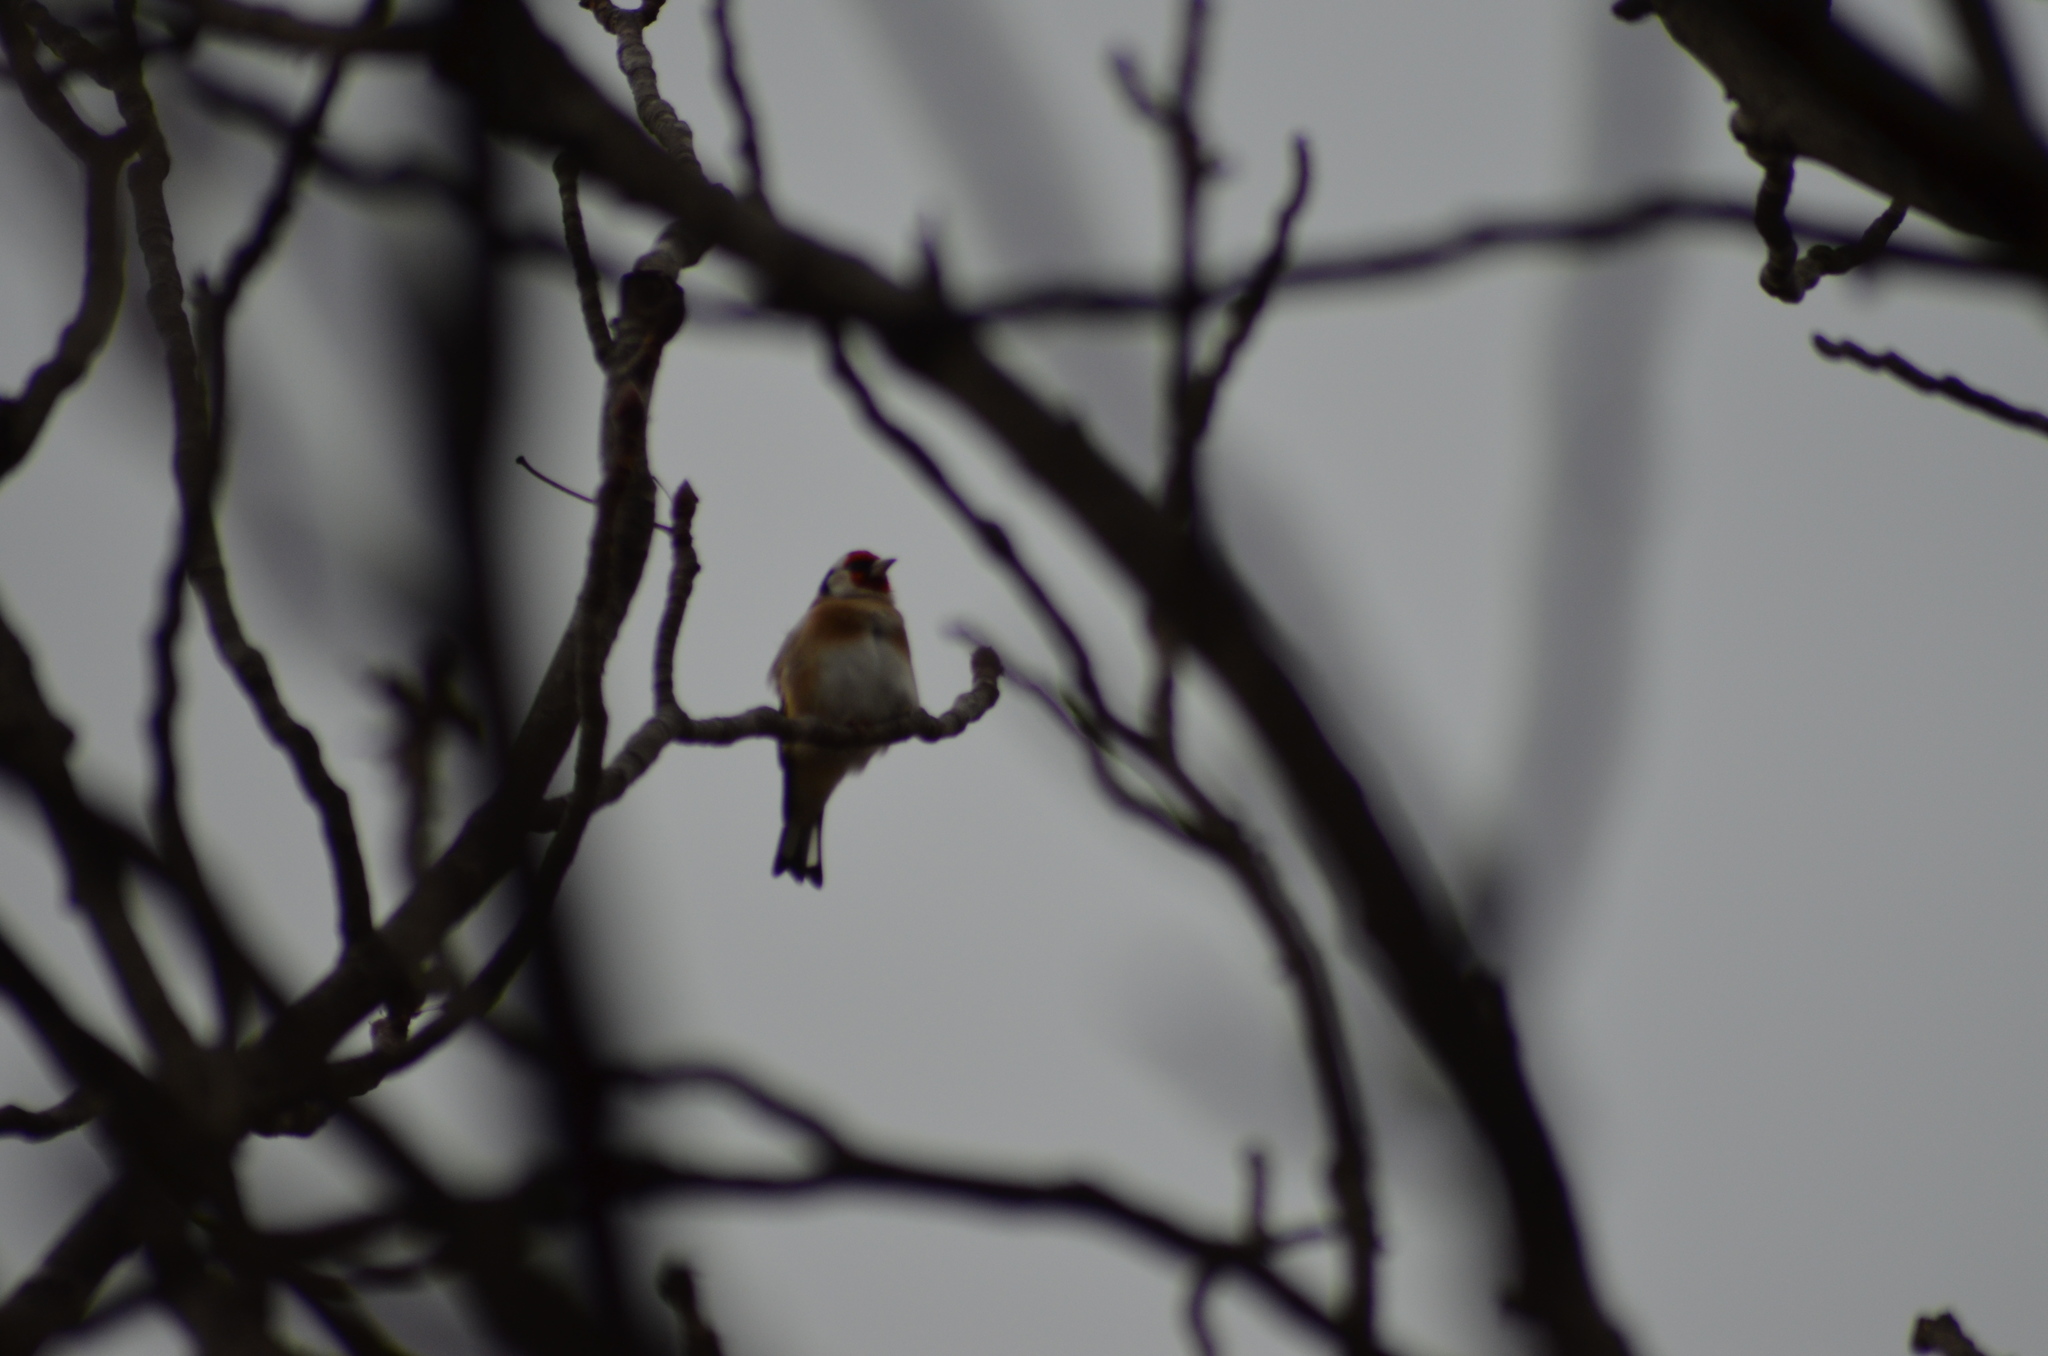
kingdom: Animalia
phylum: Chordata
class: Aves
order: Passeriformes
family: Fringillidae
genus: Carduelis
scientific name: Carduelis carduelis
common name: European goldfinch
